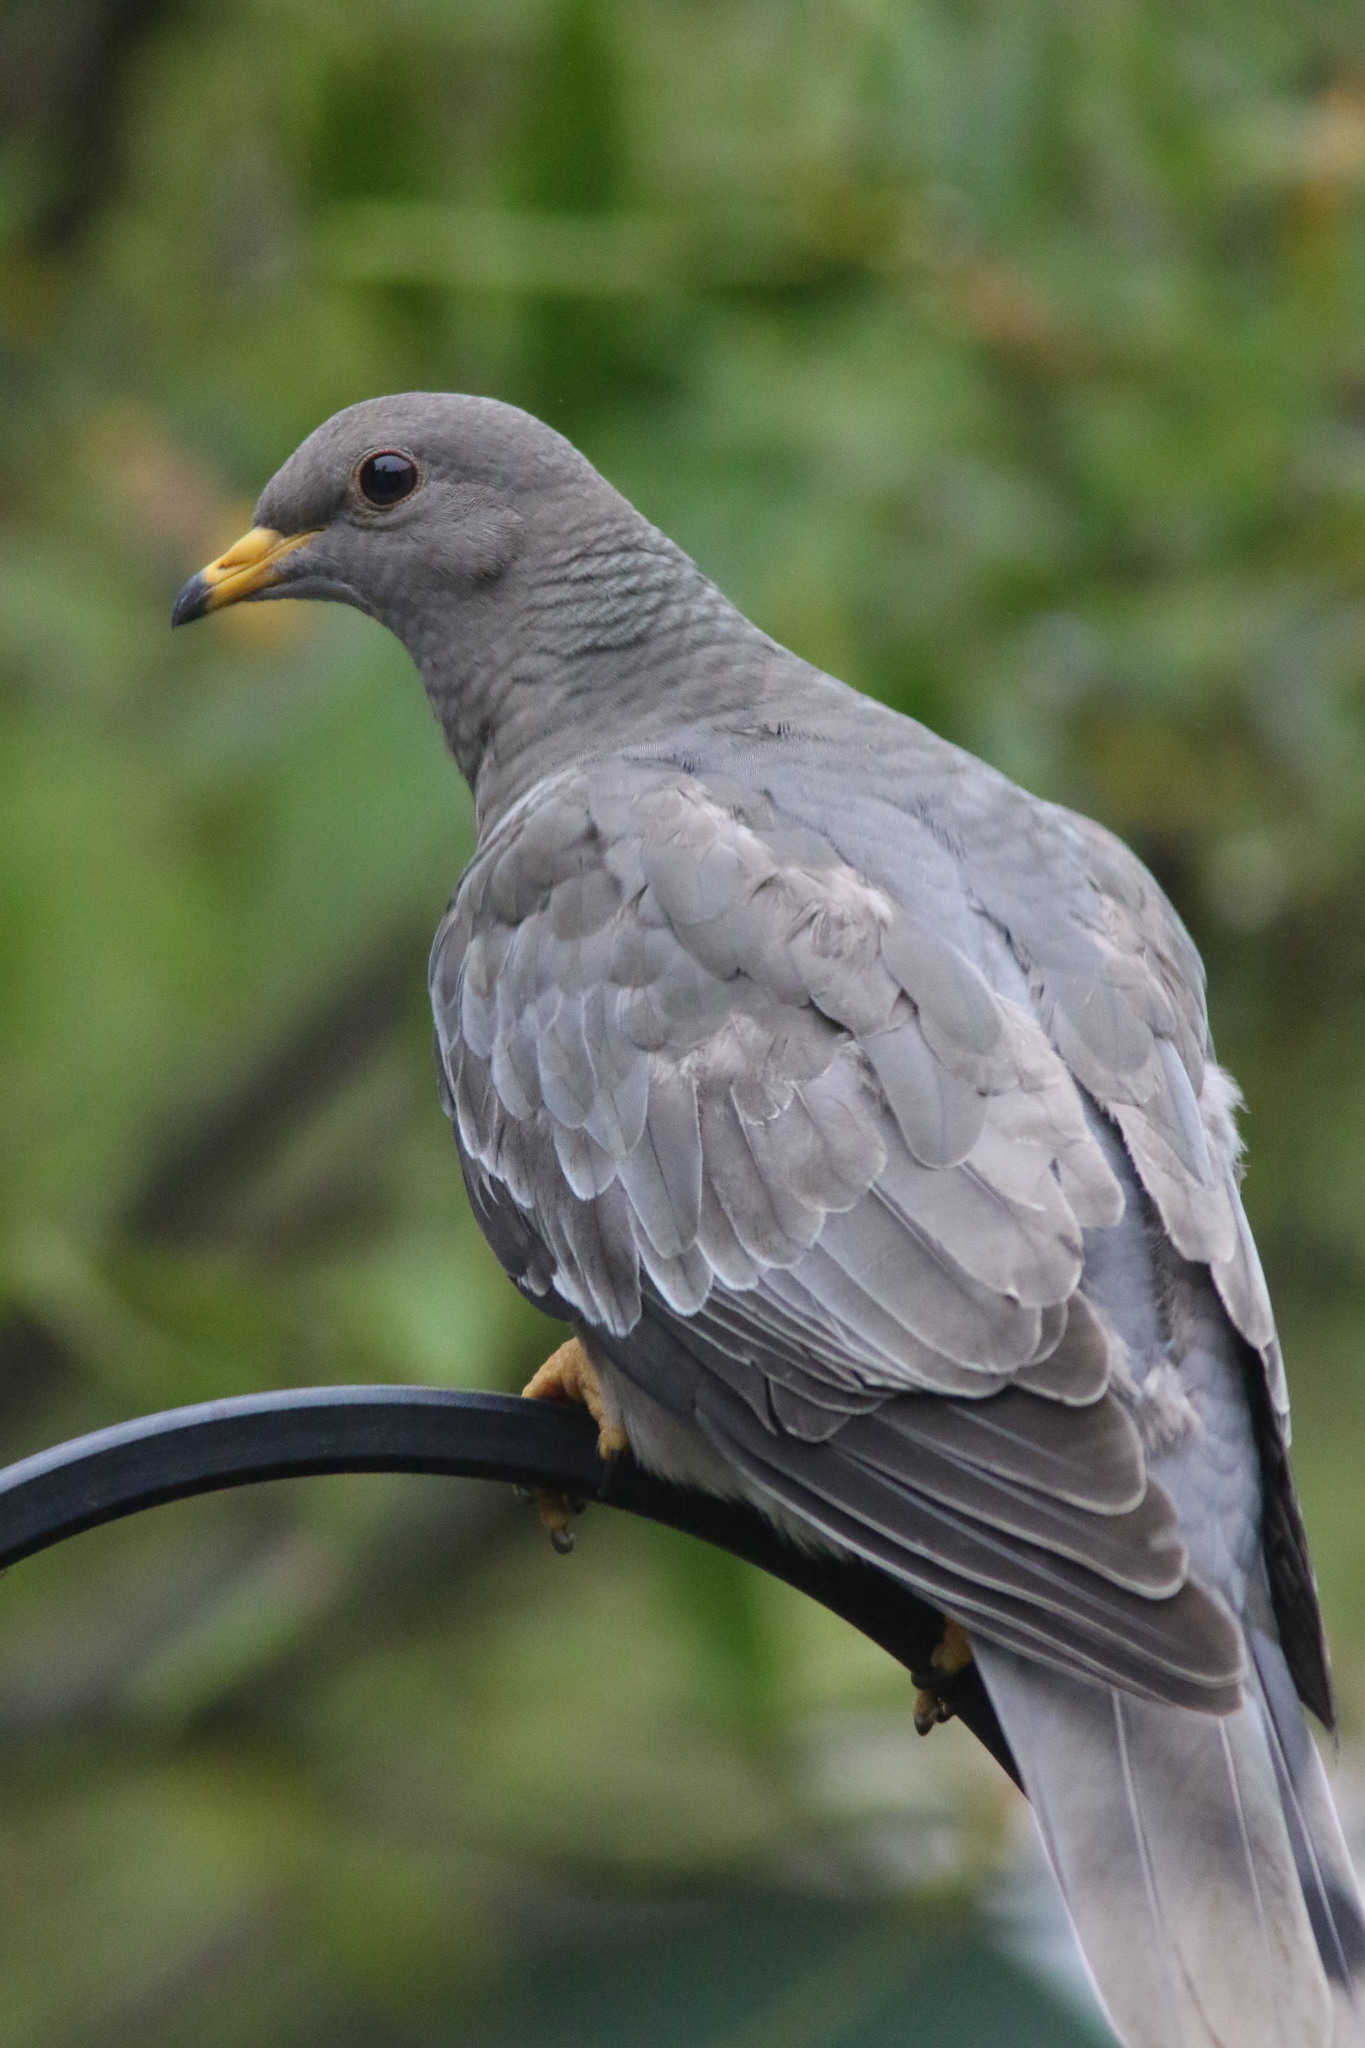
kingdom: Animalia
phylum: Chordata
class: Aves
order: Columbiformes
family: Columbidae
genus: Patagioenas
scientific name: Patagioenas fasciata
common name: Band-tailed pigeon
